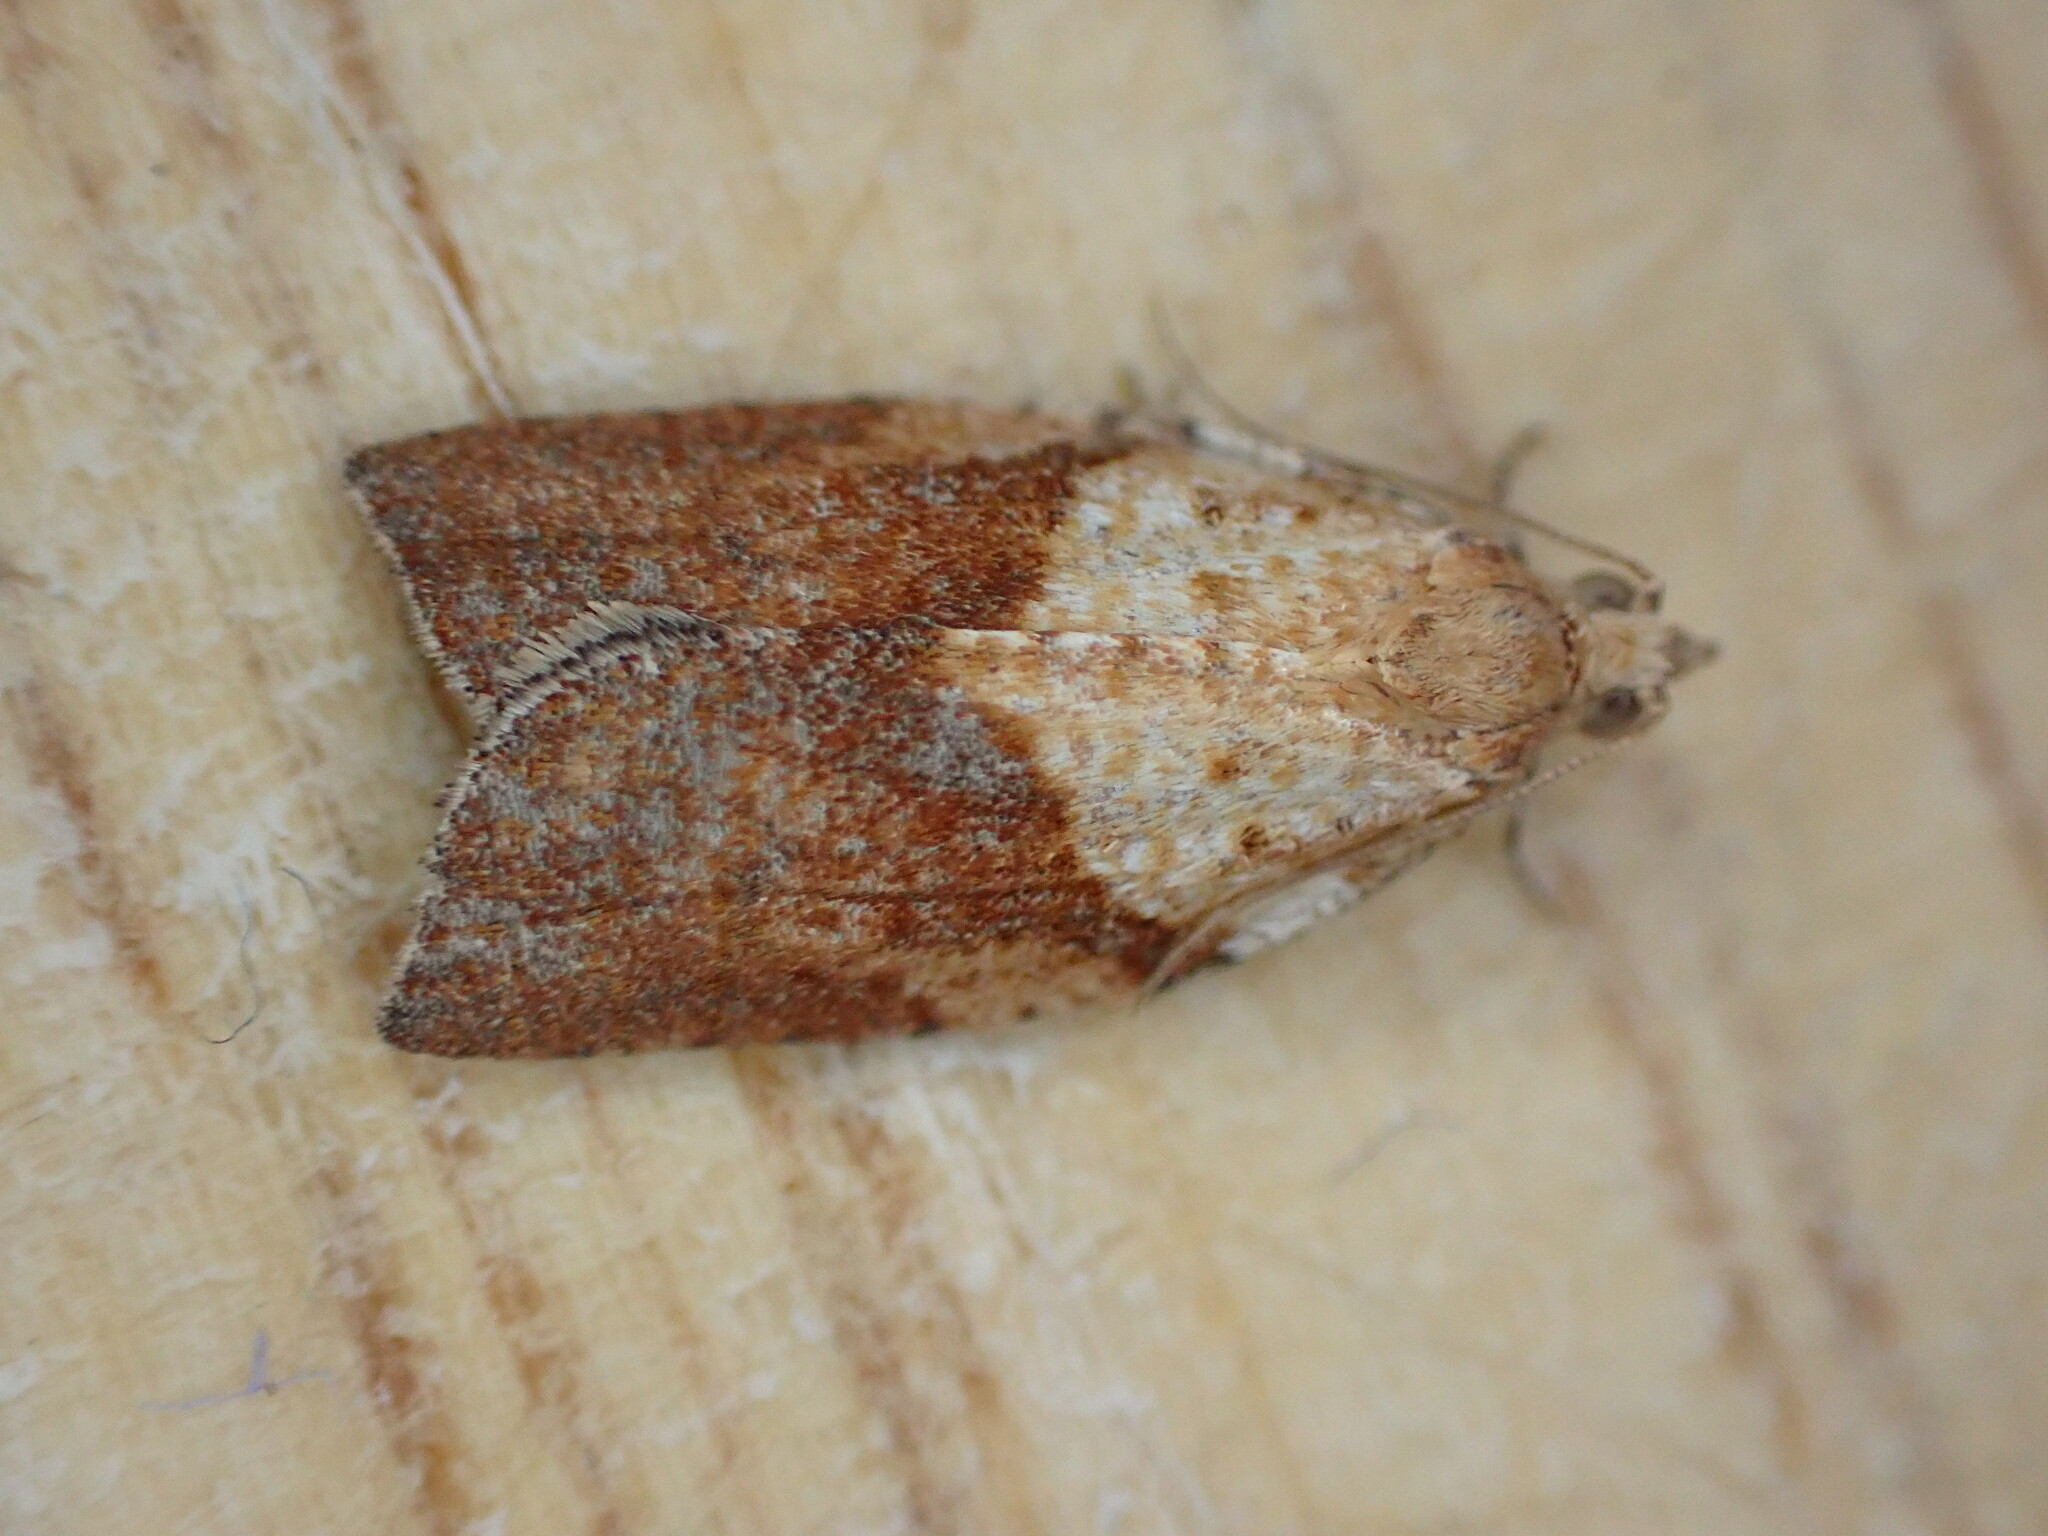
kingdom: Animalia
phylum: Arthropoda
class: Insecta
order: Lepidoptera
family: Tortricidae
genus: Epiphyas
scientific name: Epiphyas postvittana
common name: Light brown apple moth
